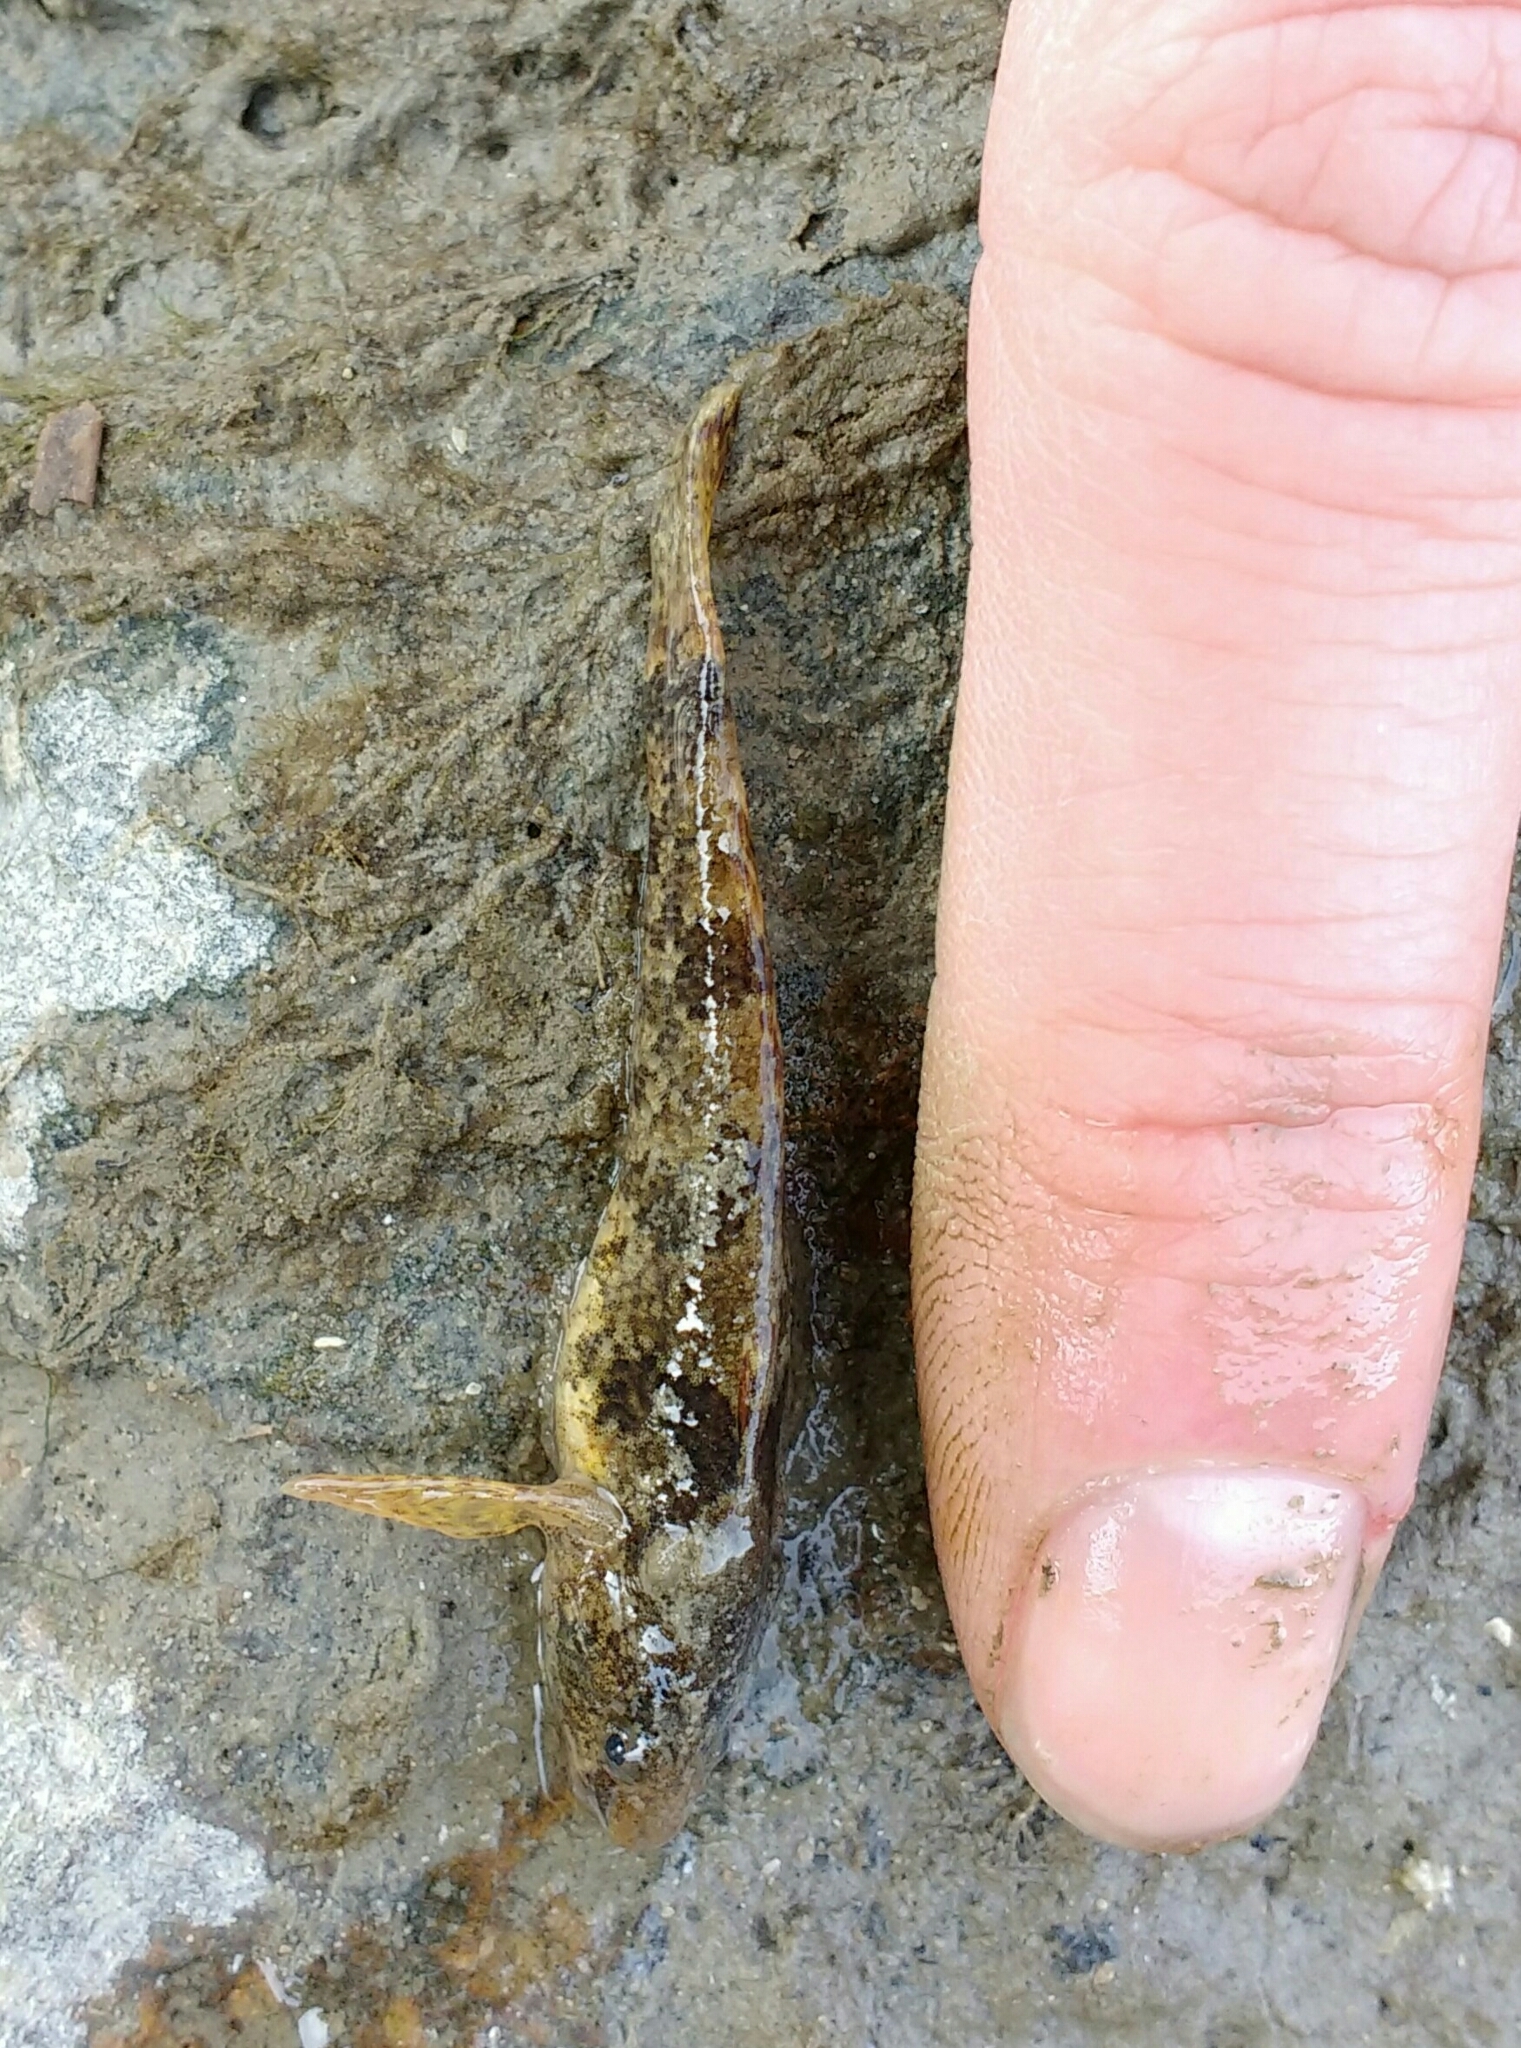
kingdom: Animalia
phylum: Chordata
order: Perciformes
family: Percidae
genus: Zingel
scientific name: Zingel streber
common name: Danube streber
